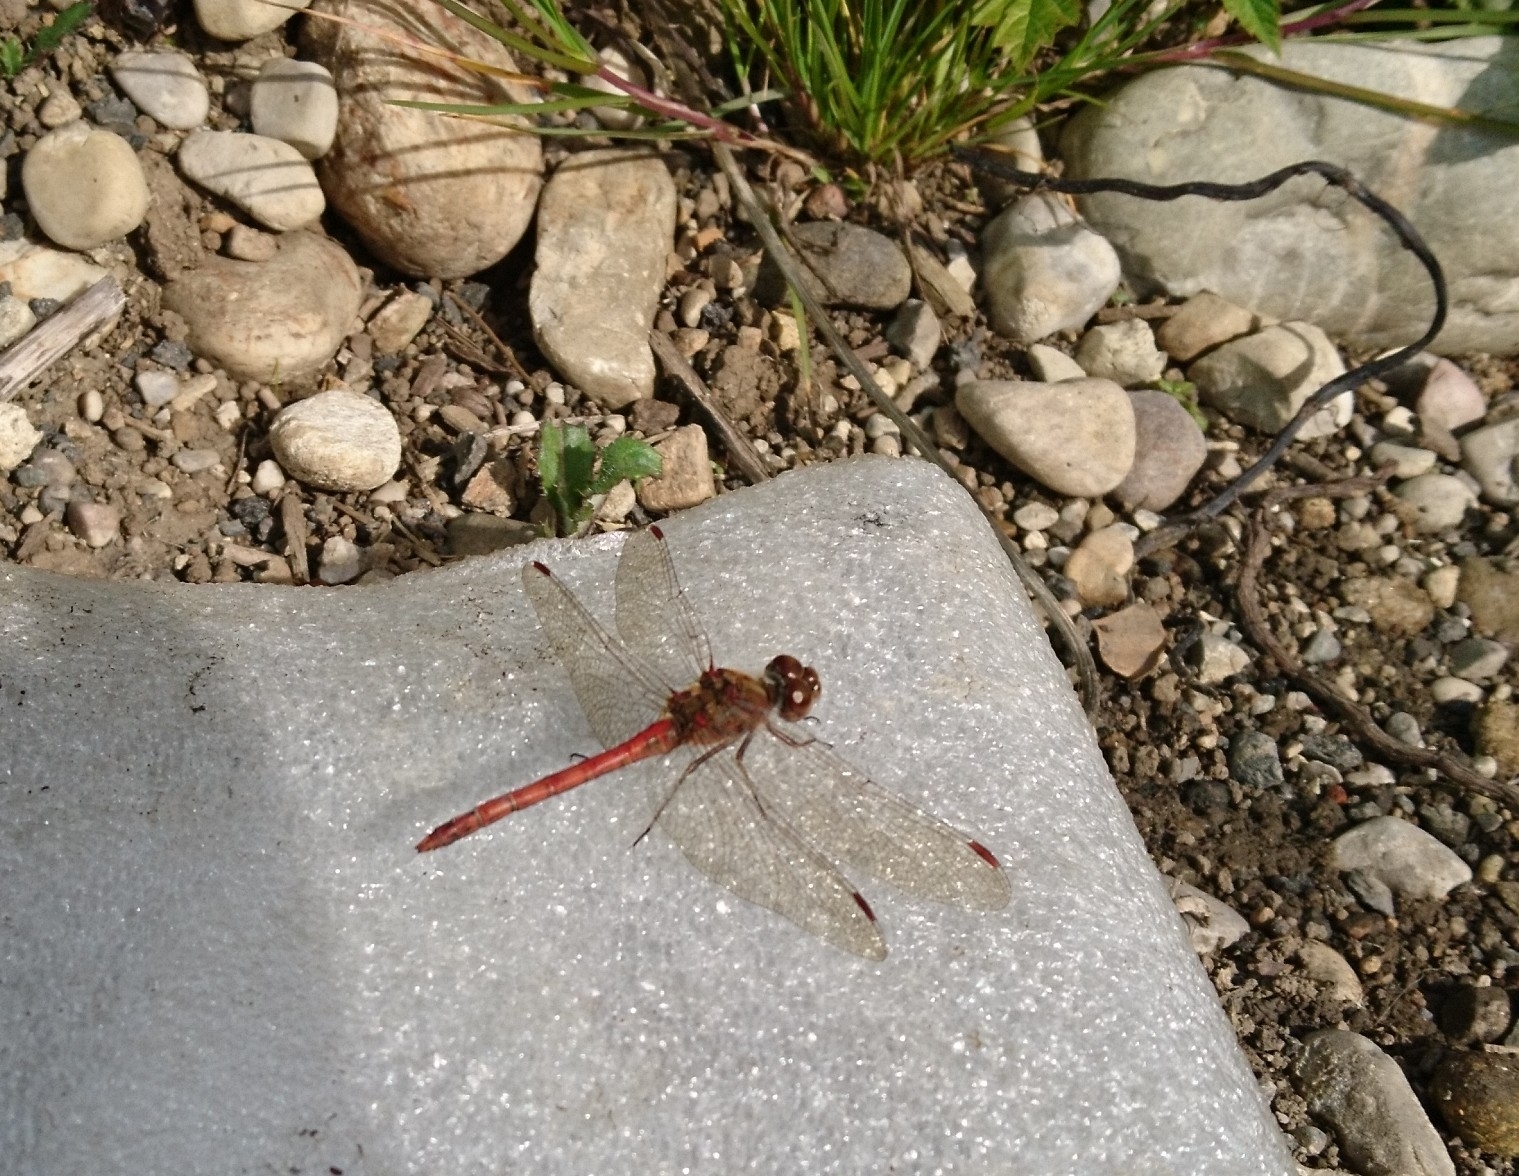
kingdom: Animalia
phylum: Arthropoda
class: Insecta
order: Odonata
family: Libellulidae
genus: Sympetrum
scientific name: Sympetrum striolatum
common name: Common darter
